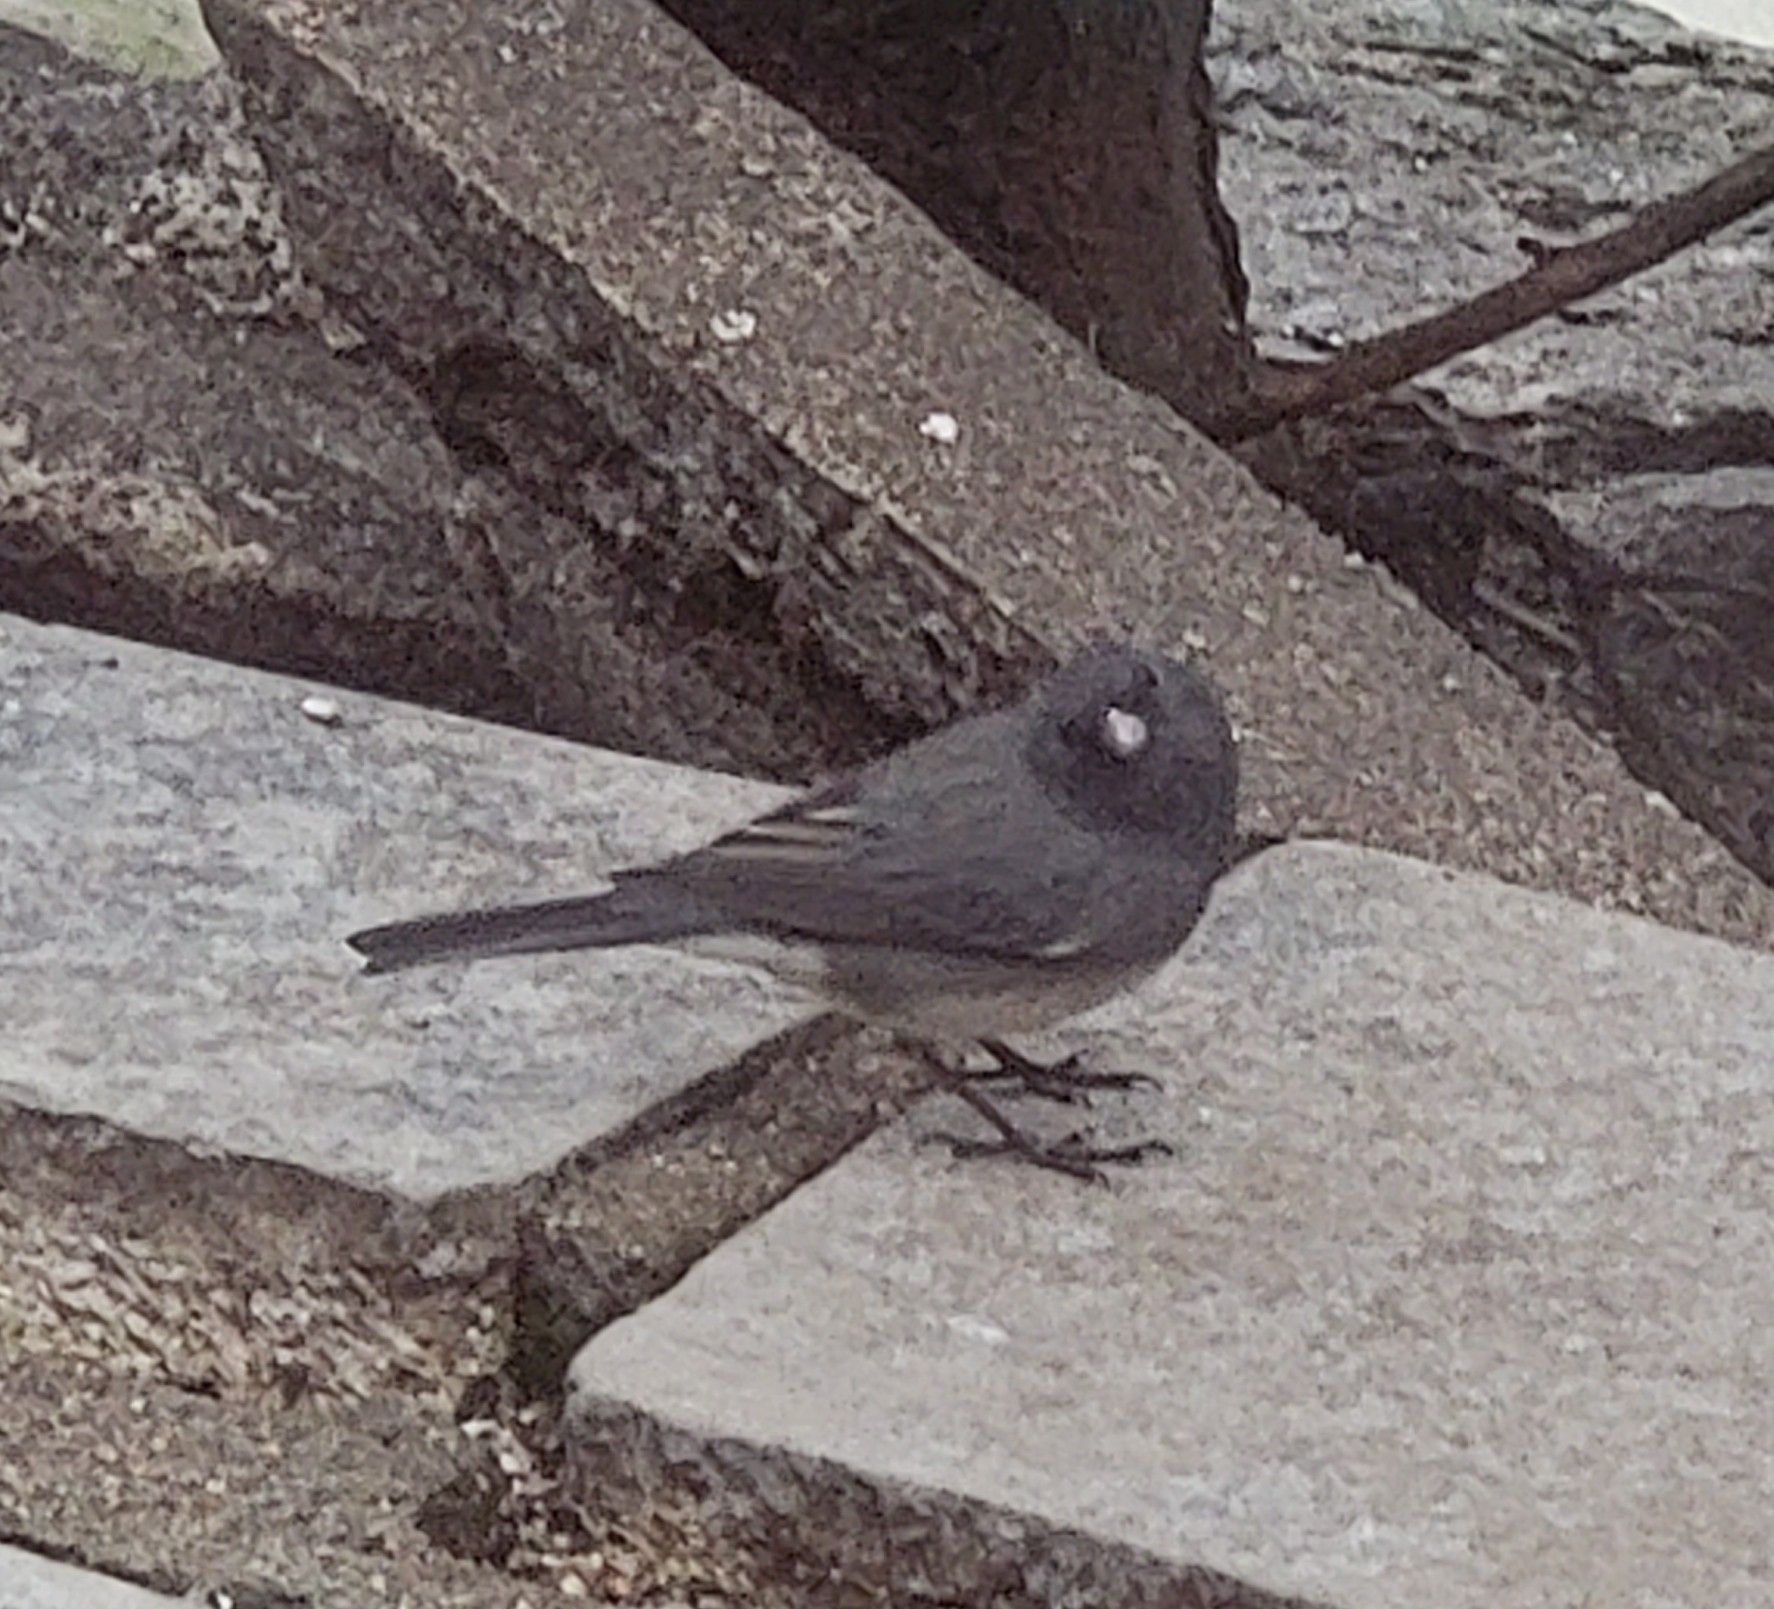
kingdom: Animalia
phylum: Chordata
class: Aves
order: Passeriformes
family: Passerellidae
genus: Junco
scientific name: Junco hyemalis
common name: Dark-eyed junco
